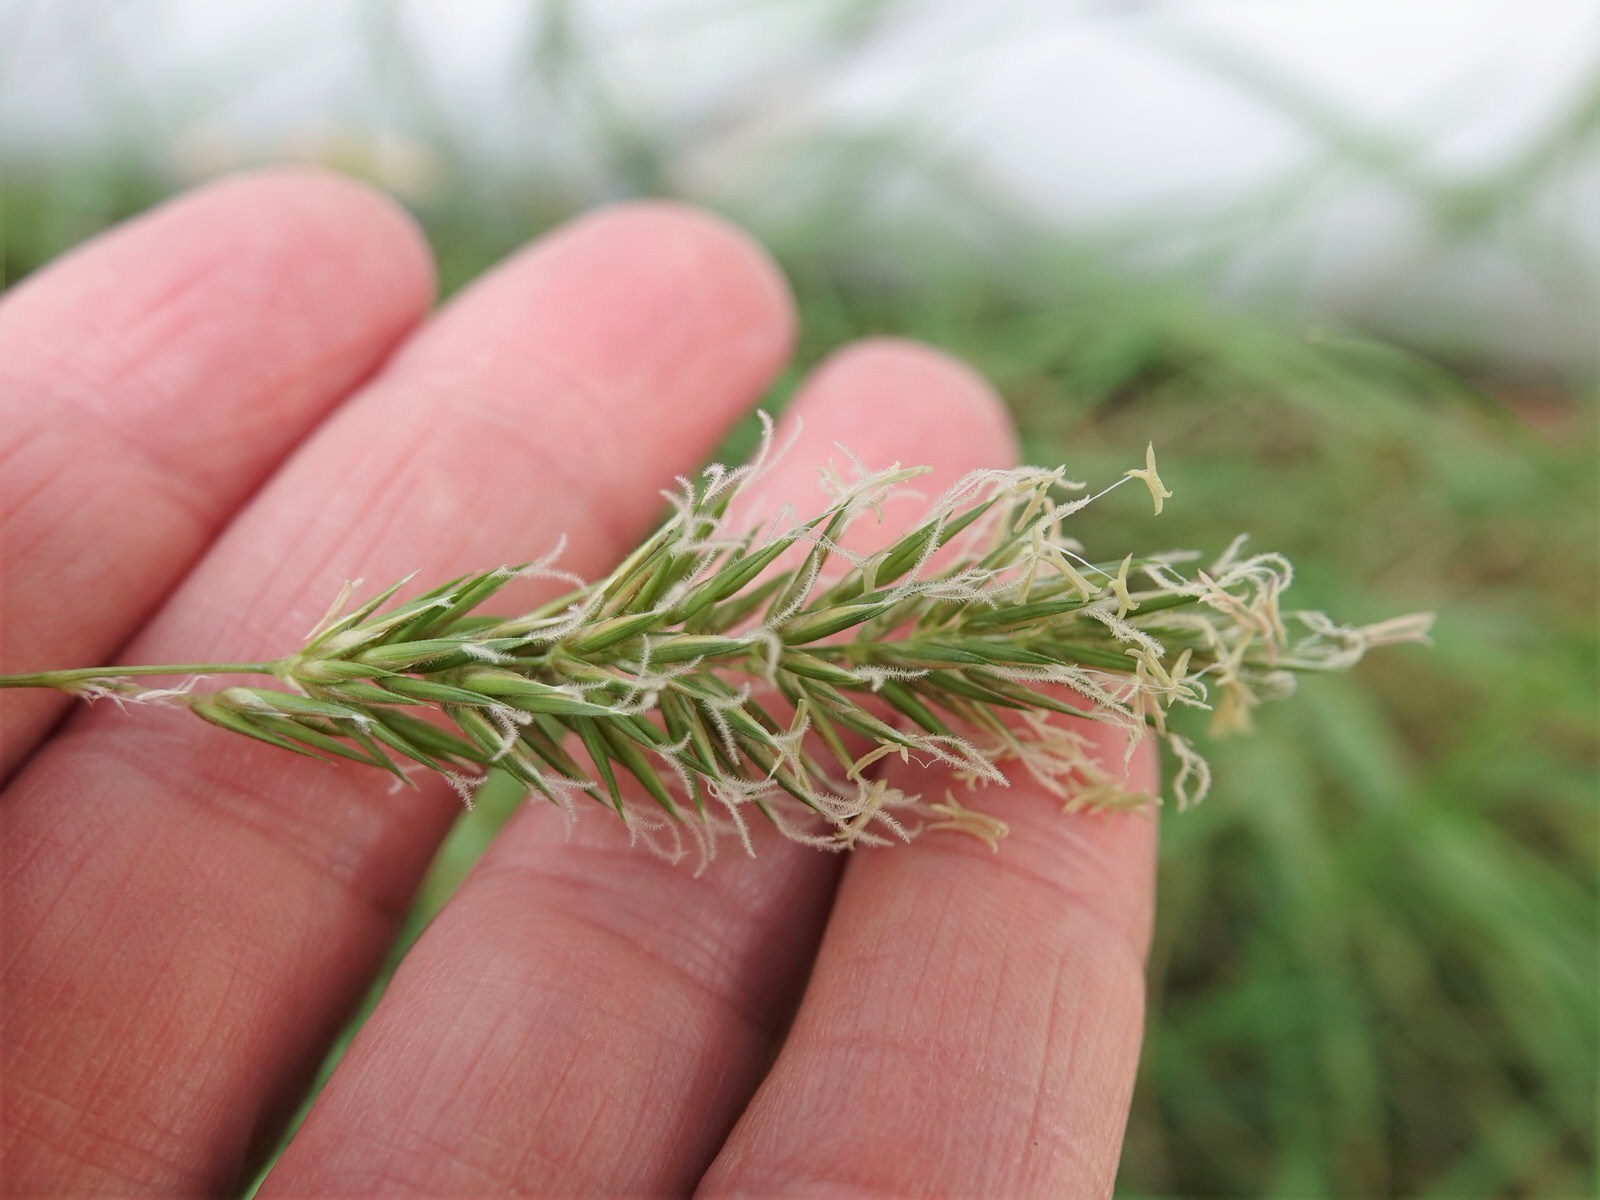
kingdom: Plantae
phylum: Tracheophyta
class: Liliopsida
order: Poales
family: Poaceae
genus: Anthoxanthum
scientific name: Anthoxanthum odoratum
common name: Sweet vernalgrass
